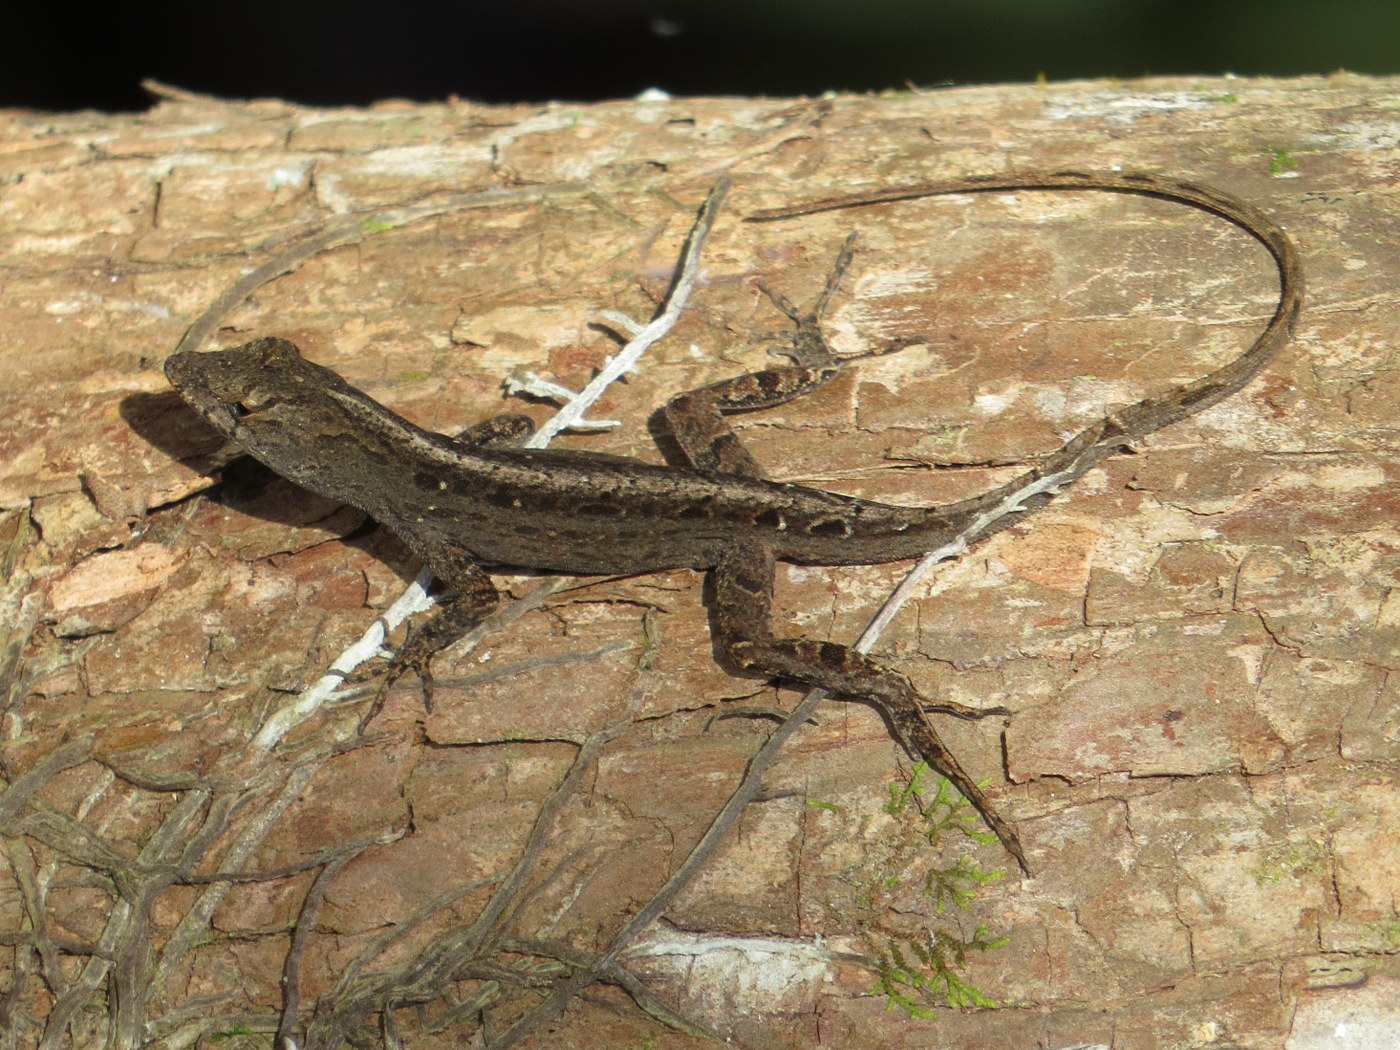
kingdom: Animalia
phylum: Chordata
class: Squamata
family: Dactyloidae
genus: Anolis
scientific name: Anolis sagrei
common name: Brown anole
